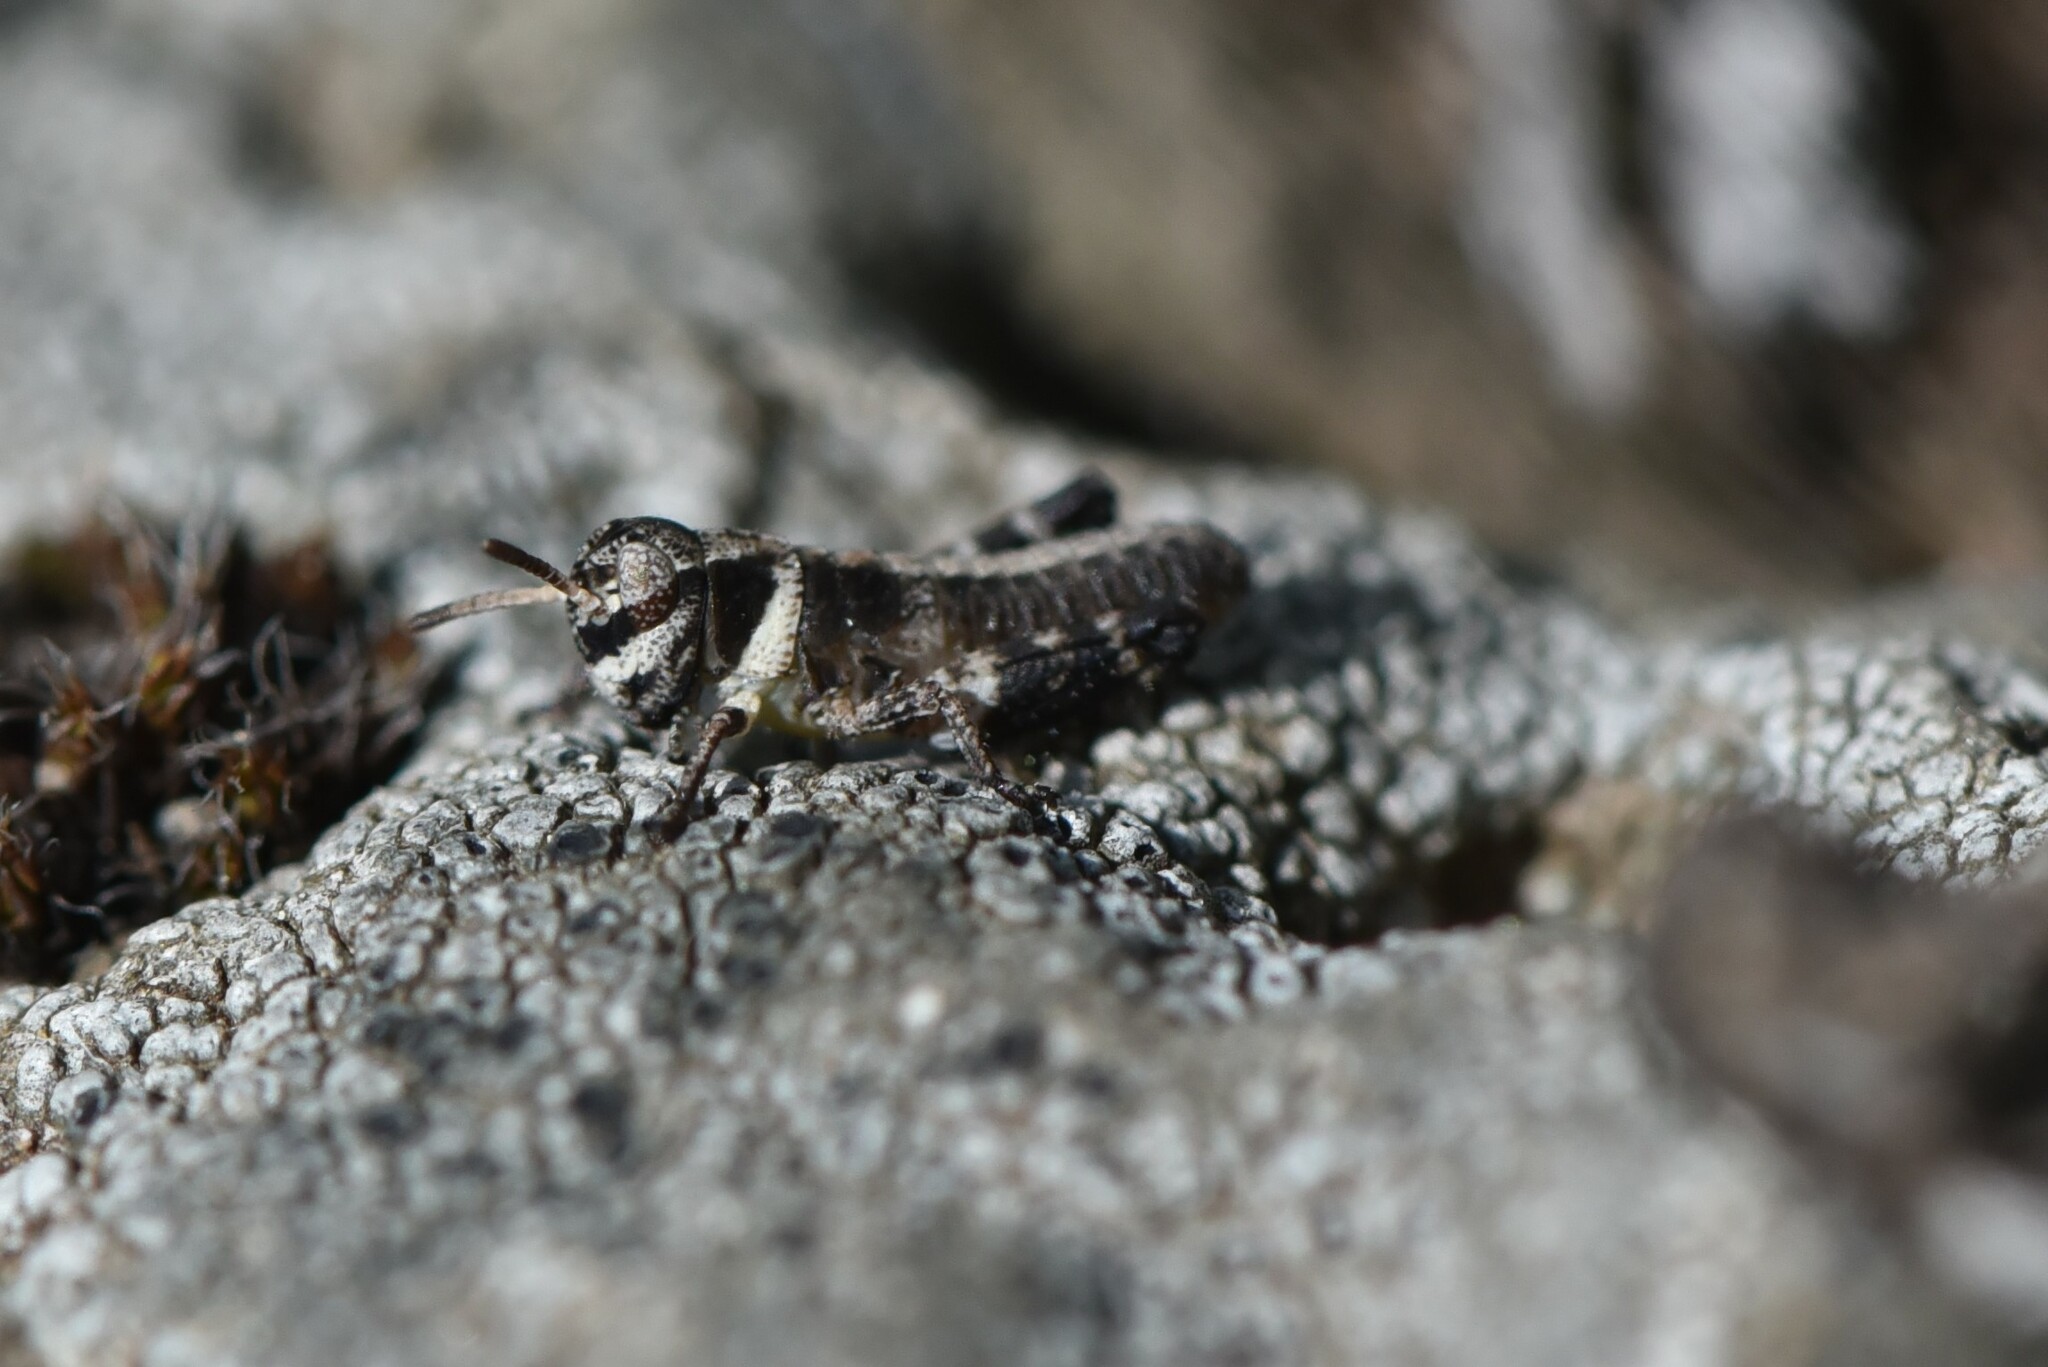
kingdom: Animalia
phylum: Arthropoda
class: Insecta
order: Orthoptera
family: Acrididae
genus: Camnula
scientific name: Camnula pellucida
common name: Clear-winged grasshopper
